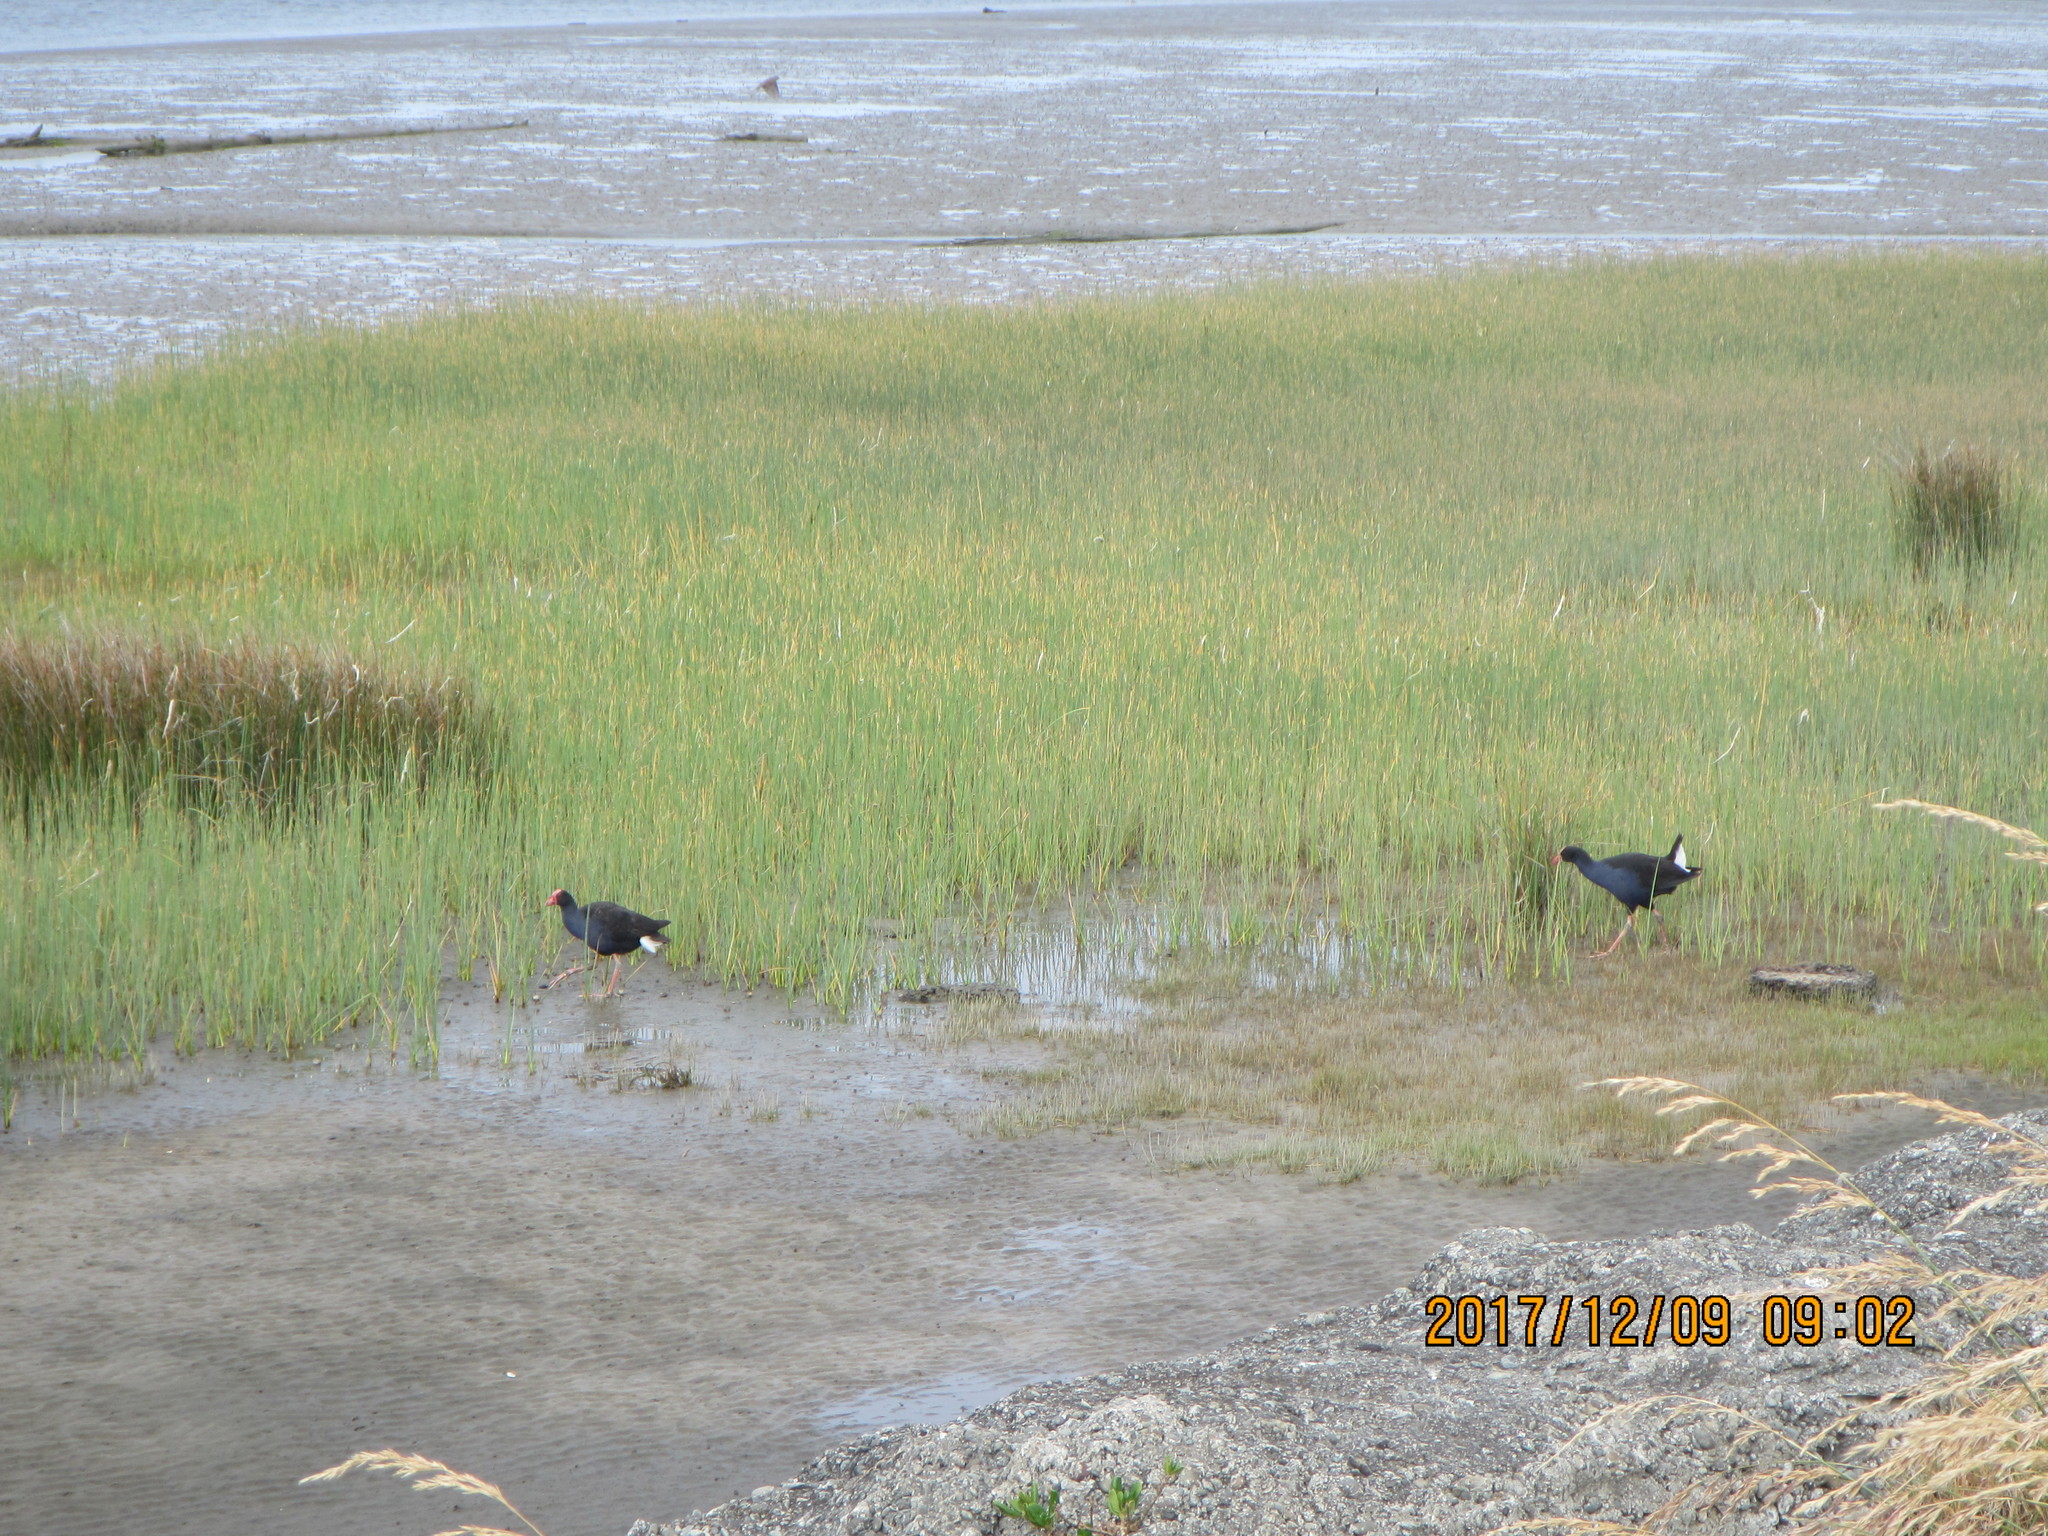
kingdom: Animalia
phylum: Chordata
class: Aves
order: Gruiformes
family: Rallidae
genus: Porphyrio
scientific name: Porphyrio melanotus
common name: Australasian swamphen
